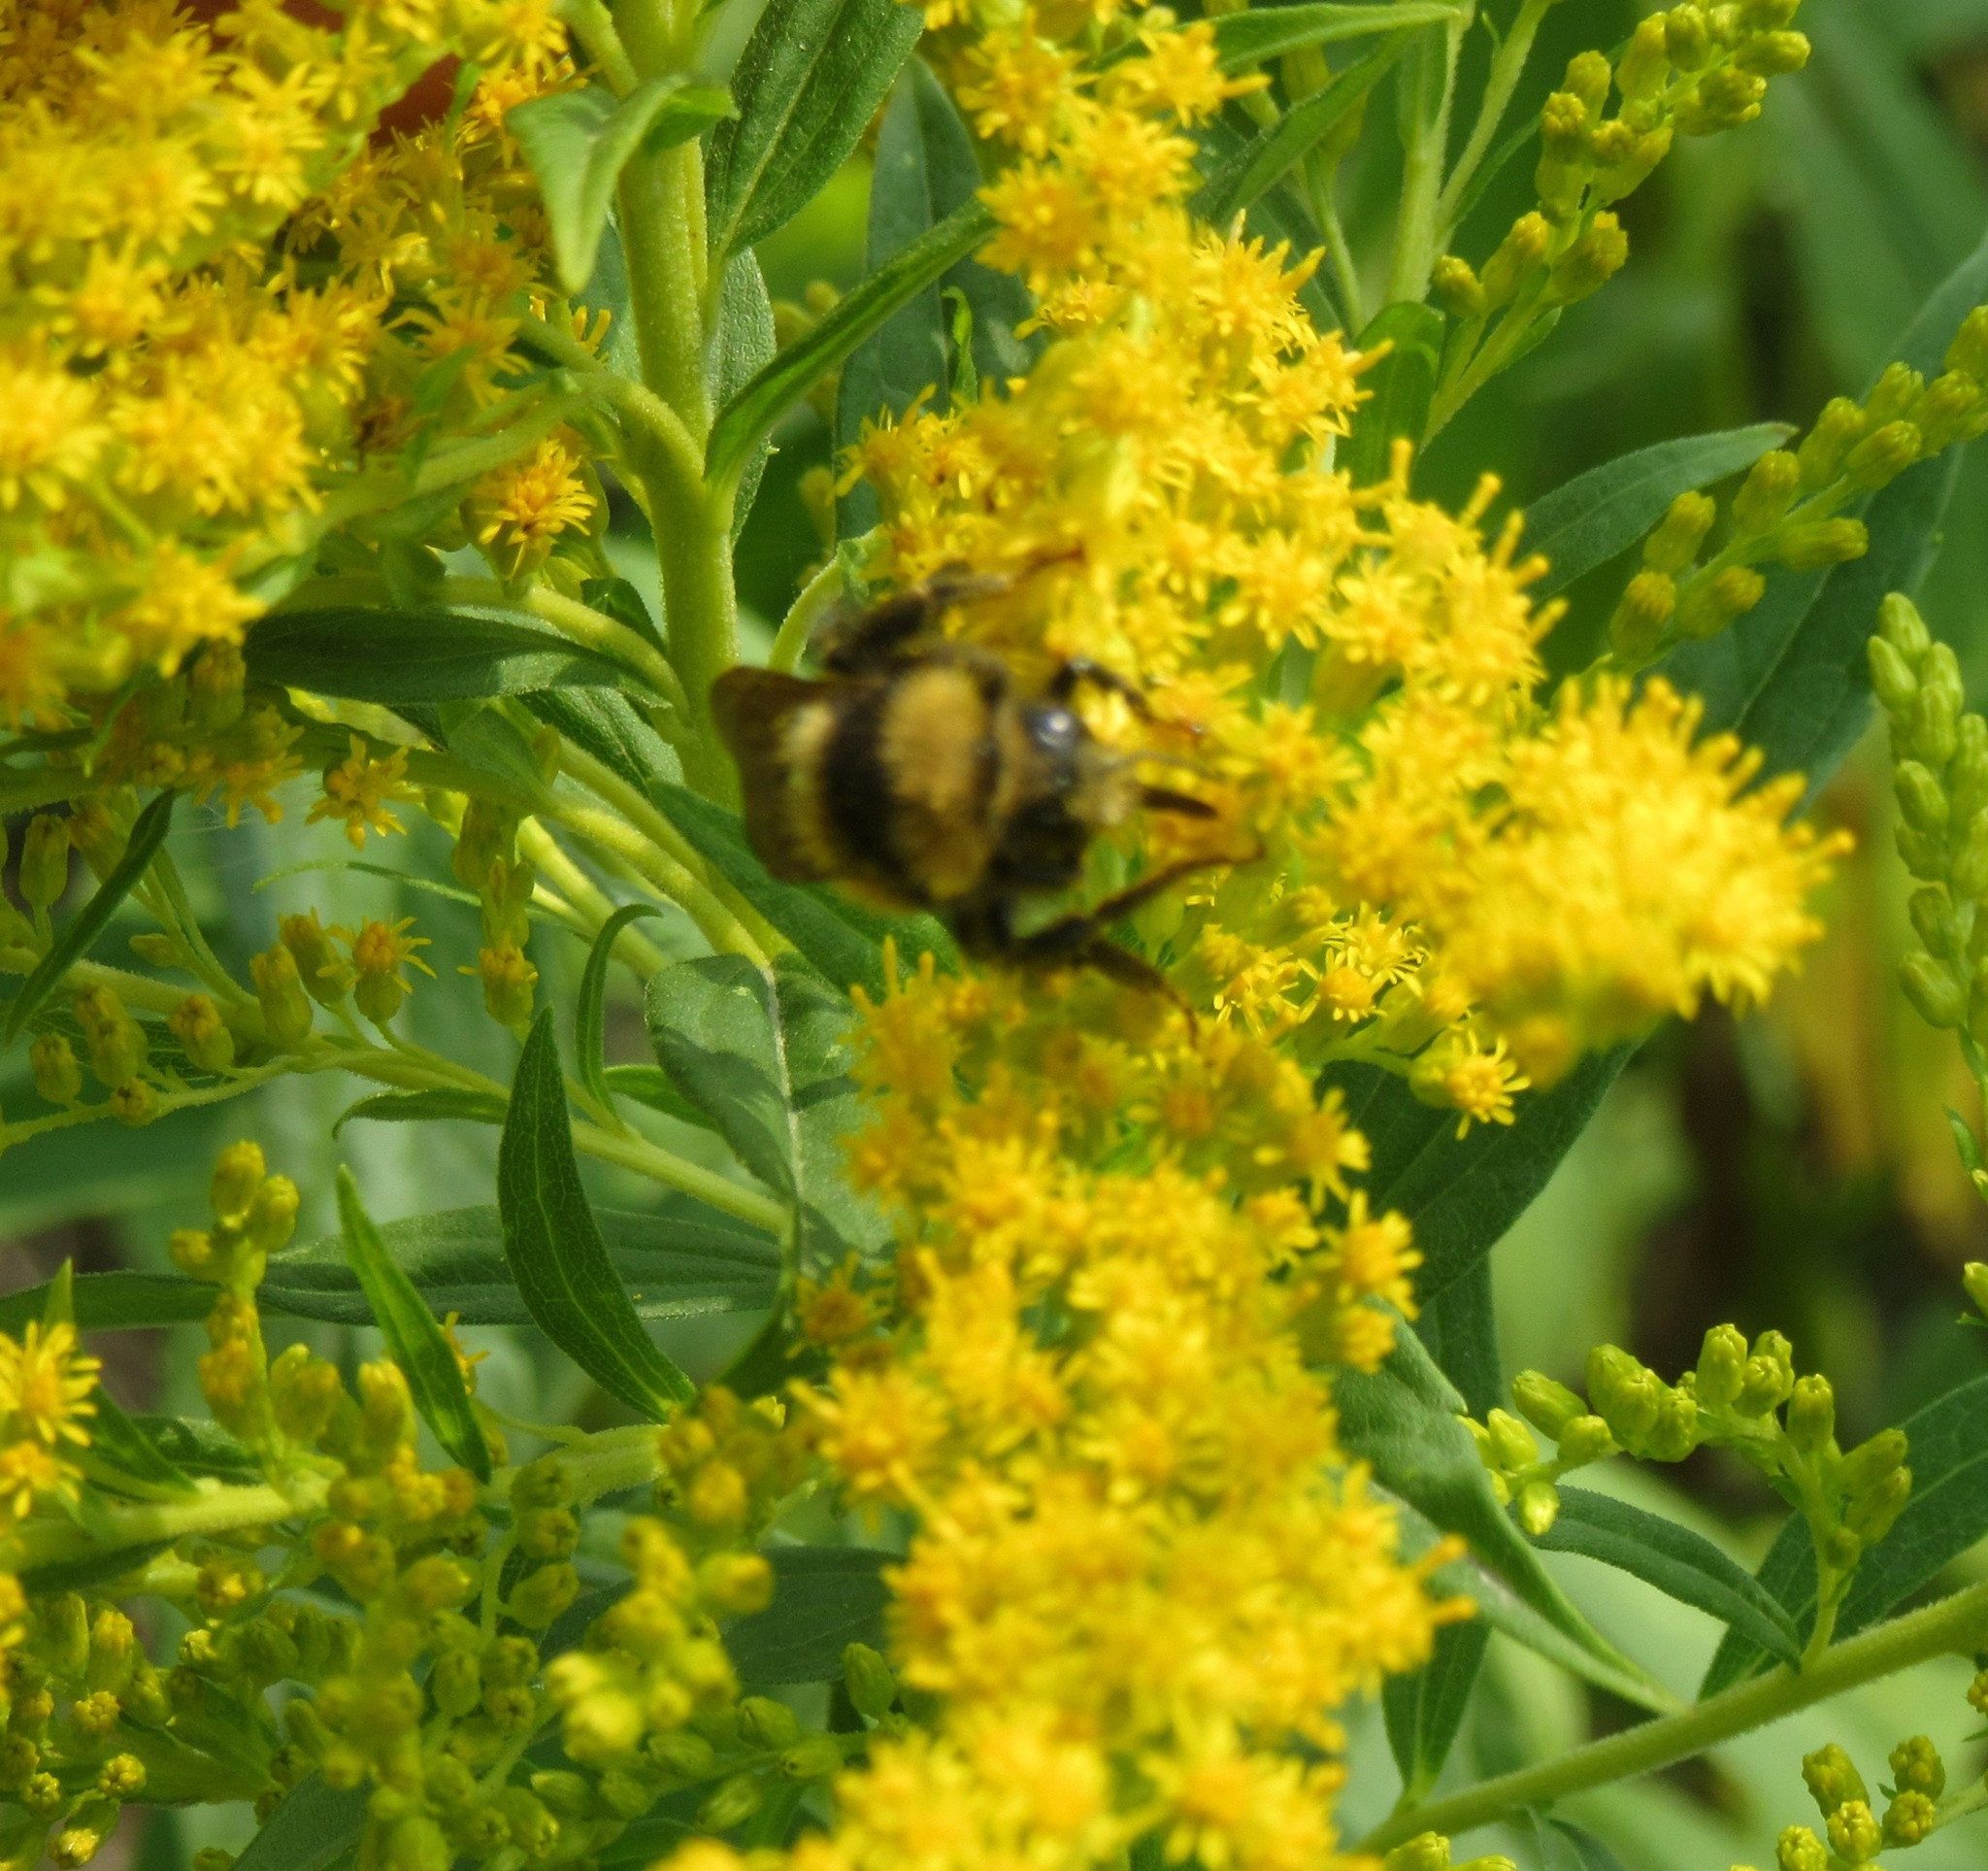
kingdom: Animalia
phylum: Arthropoda
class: Insecta
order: Hymenoptera
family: Apidae
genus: Bombus
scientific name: Bombus borealis
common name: Northern amber bumble bee
